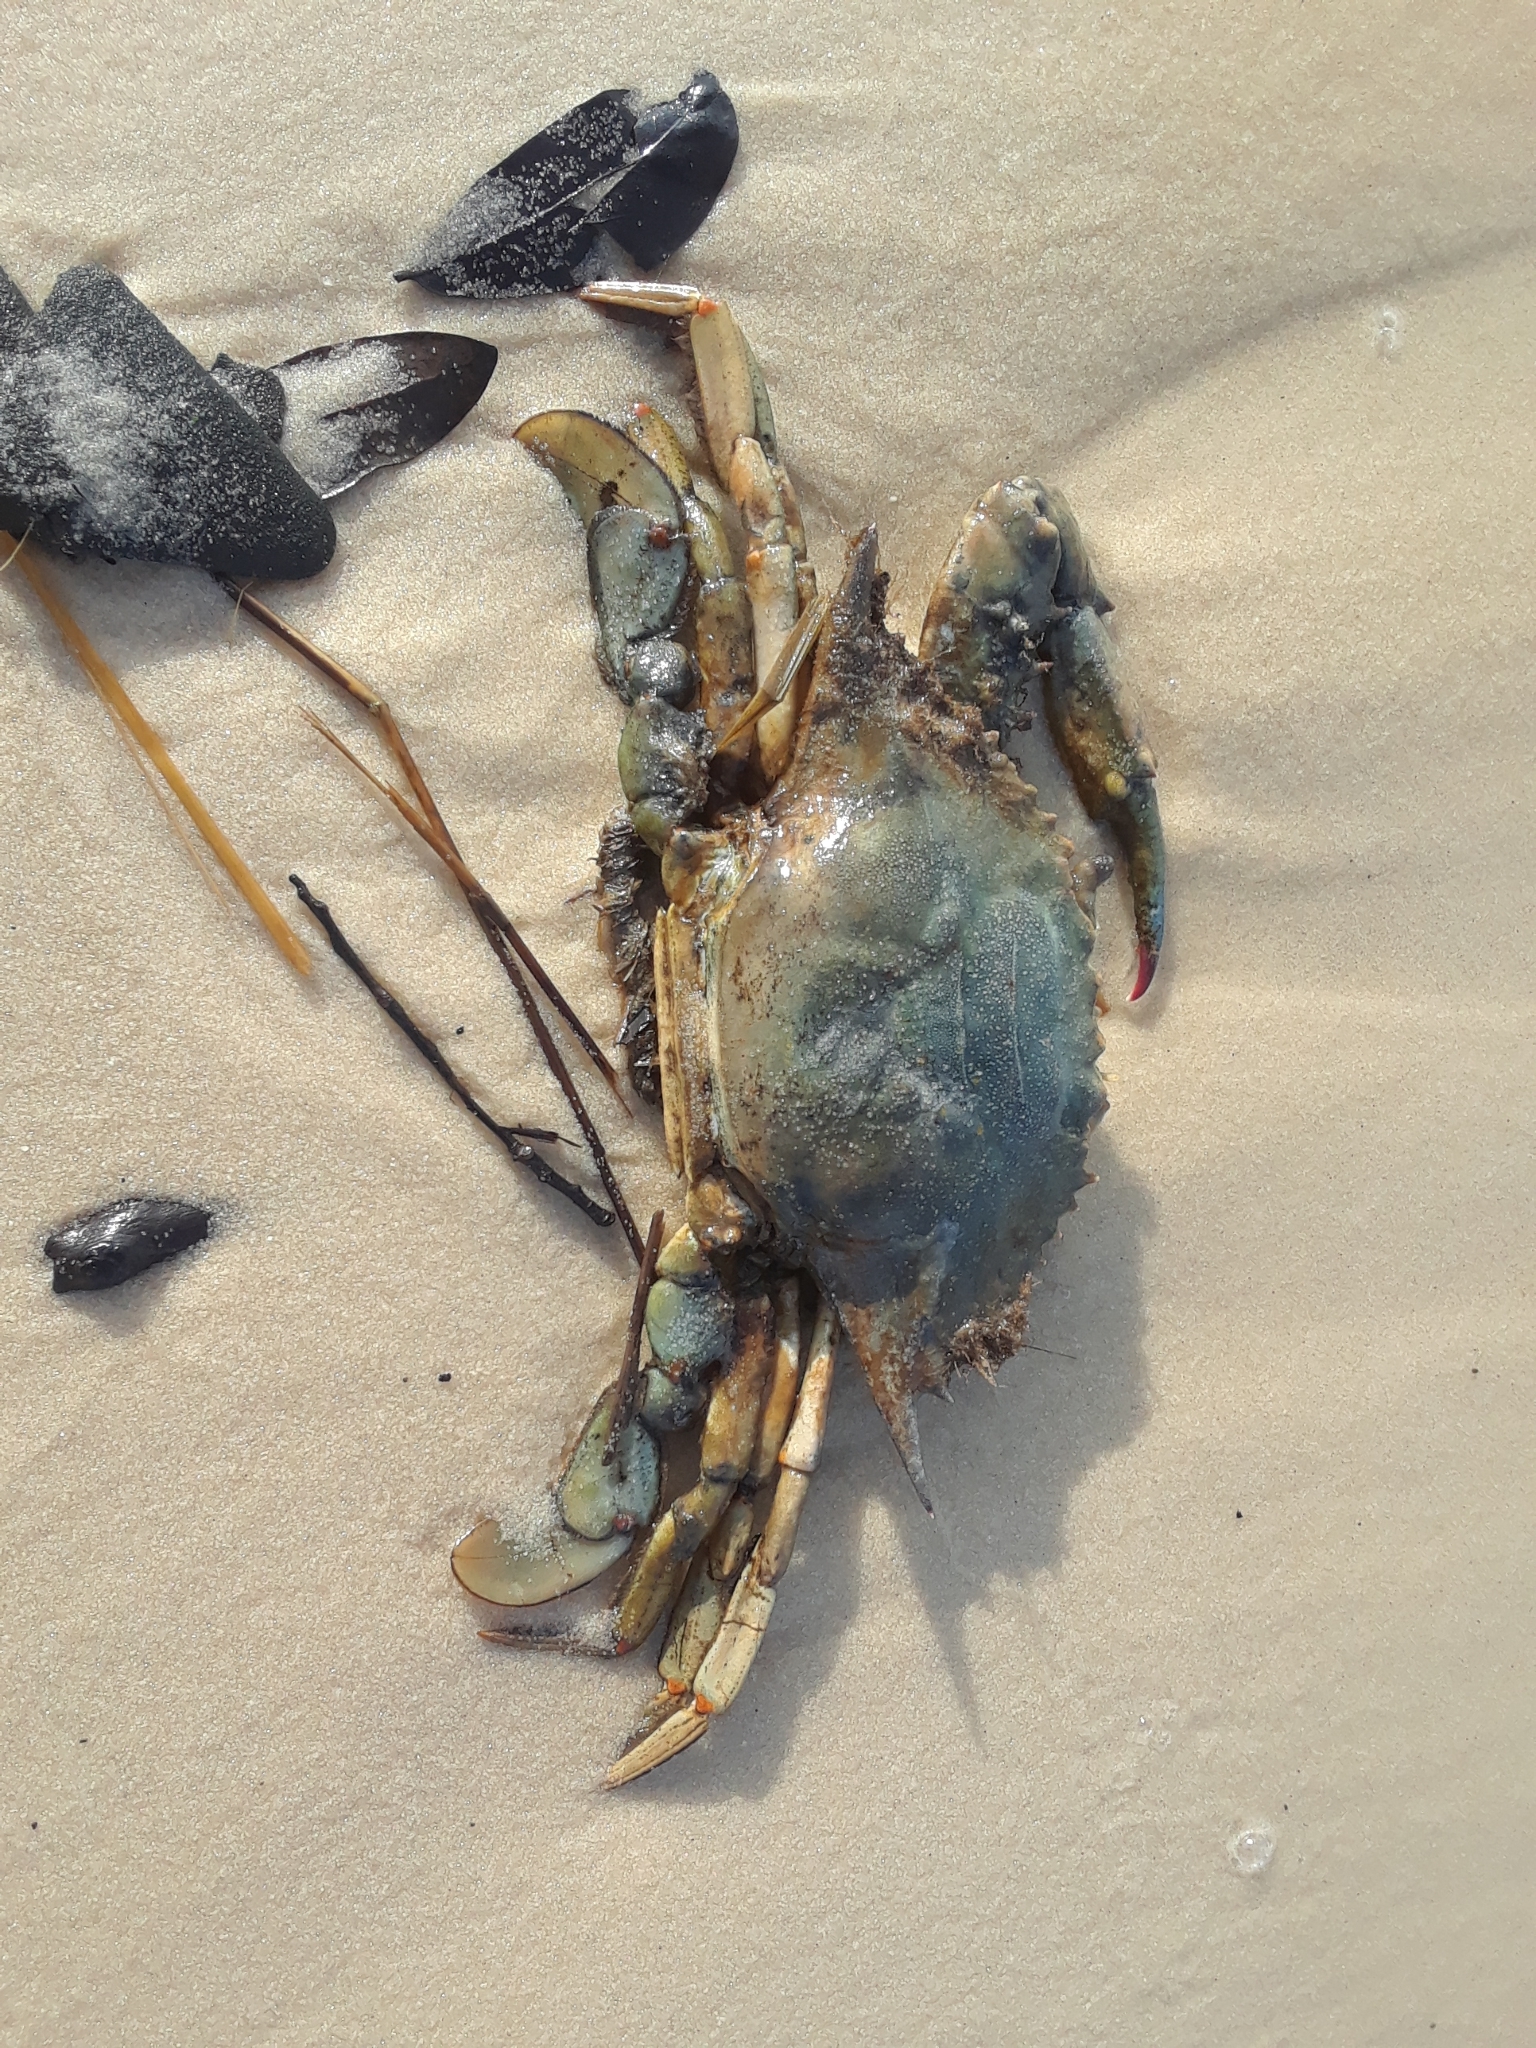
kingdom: Animalia
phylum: Arthropoda
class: Malacostraca
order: Decapoda
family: Portunidae
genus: Callinectes
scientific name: Callinectes sapidus
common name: Blue crab
